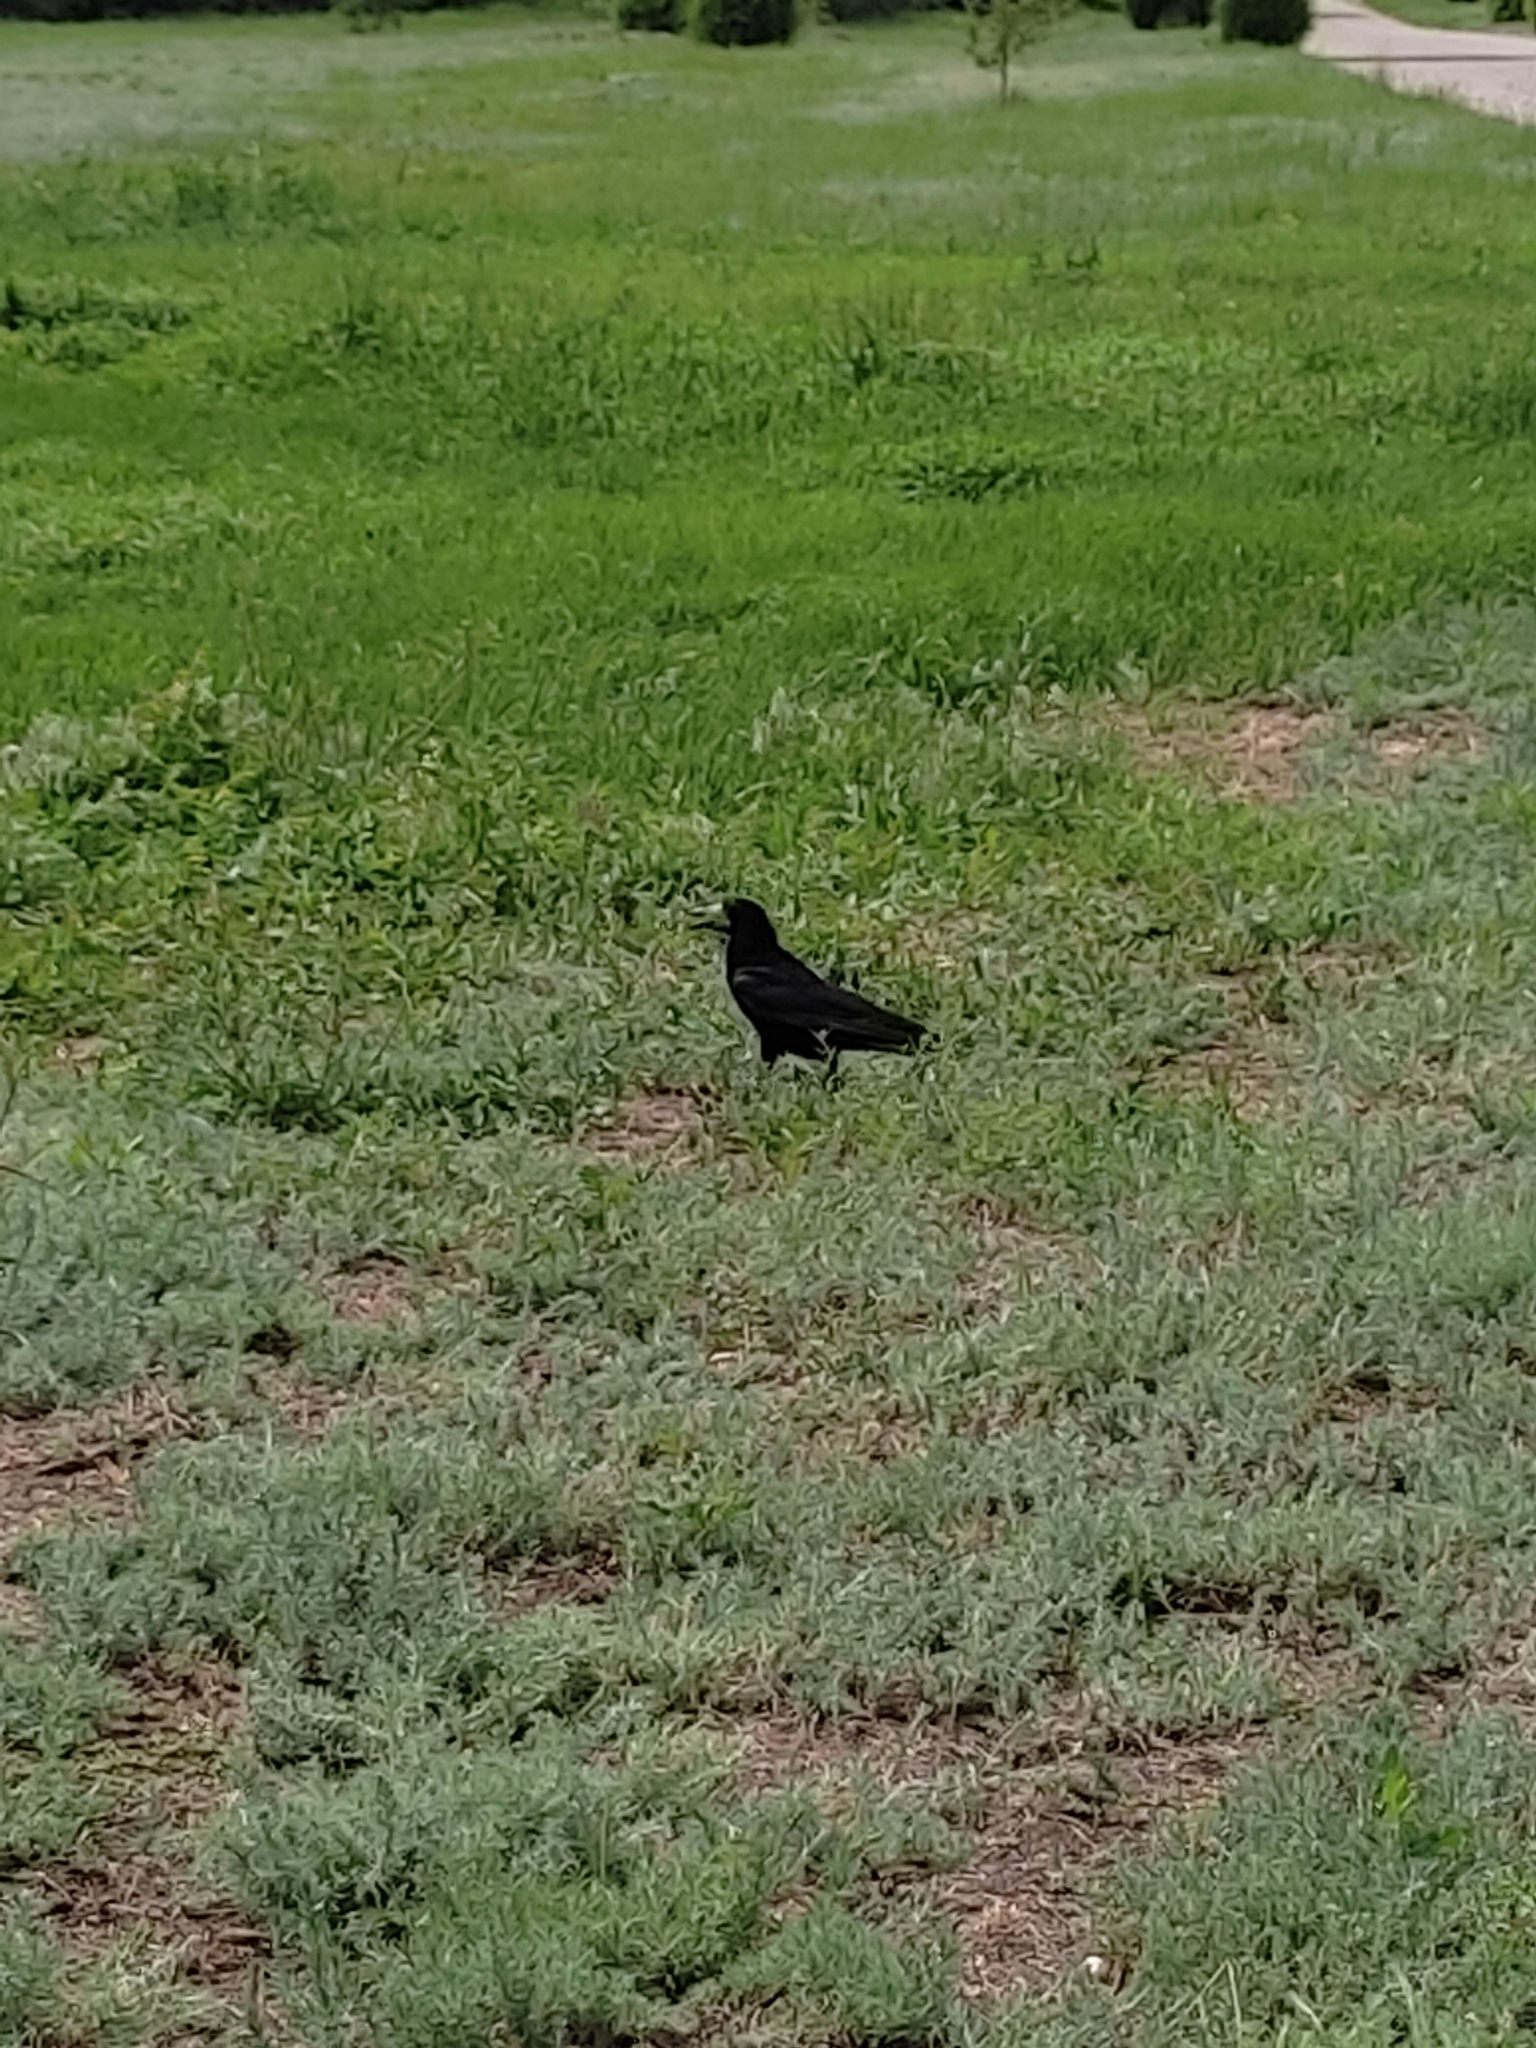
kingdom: Animalia
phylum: Chordata
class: Aves
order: Passeriformes
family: Corvidae
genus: Corvus
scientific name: Corvus frugilegus
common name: Rook
